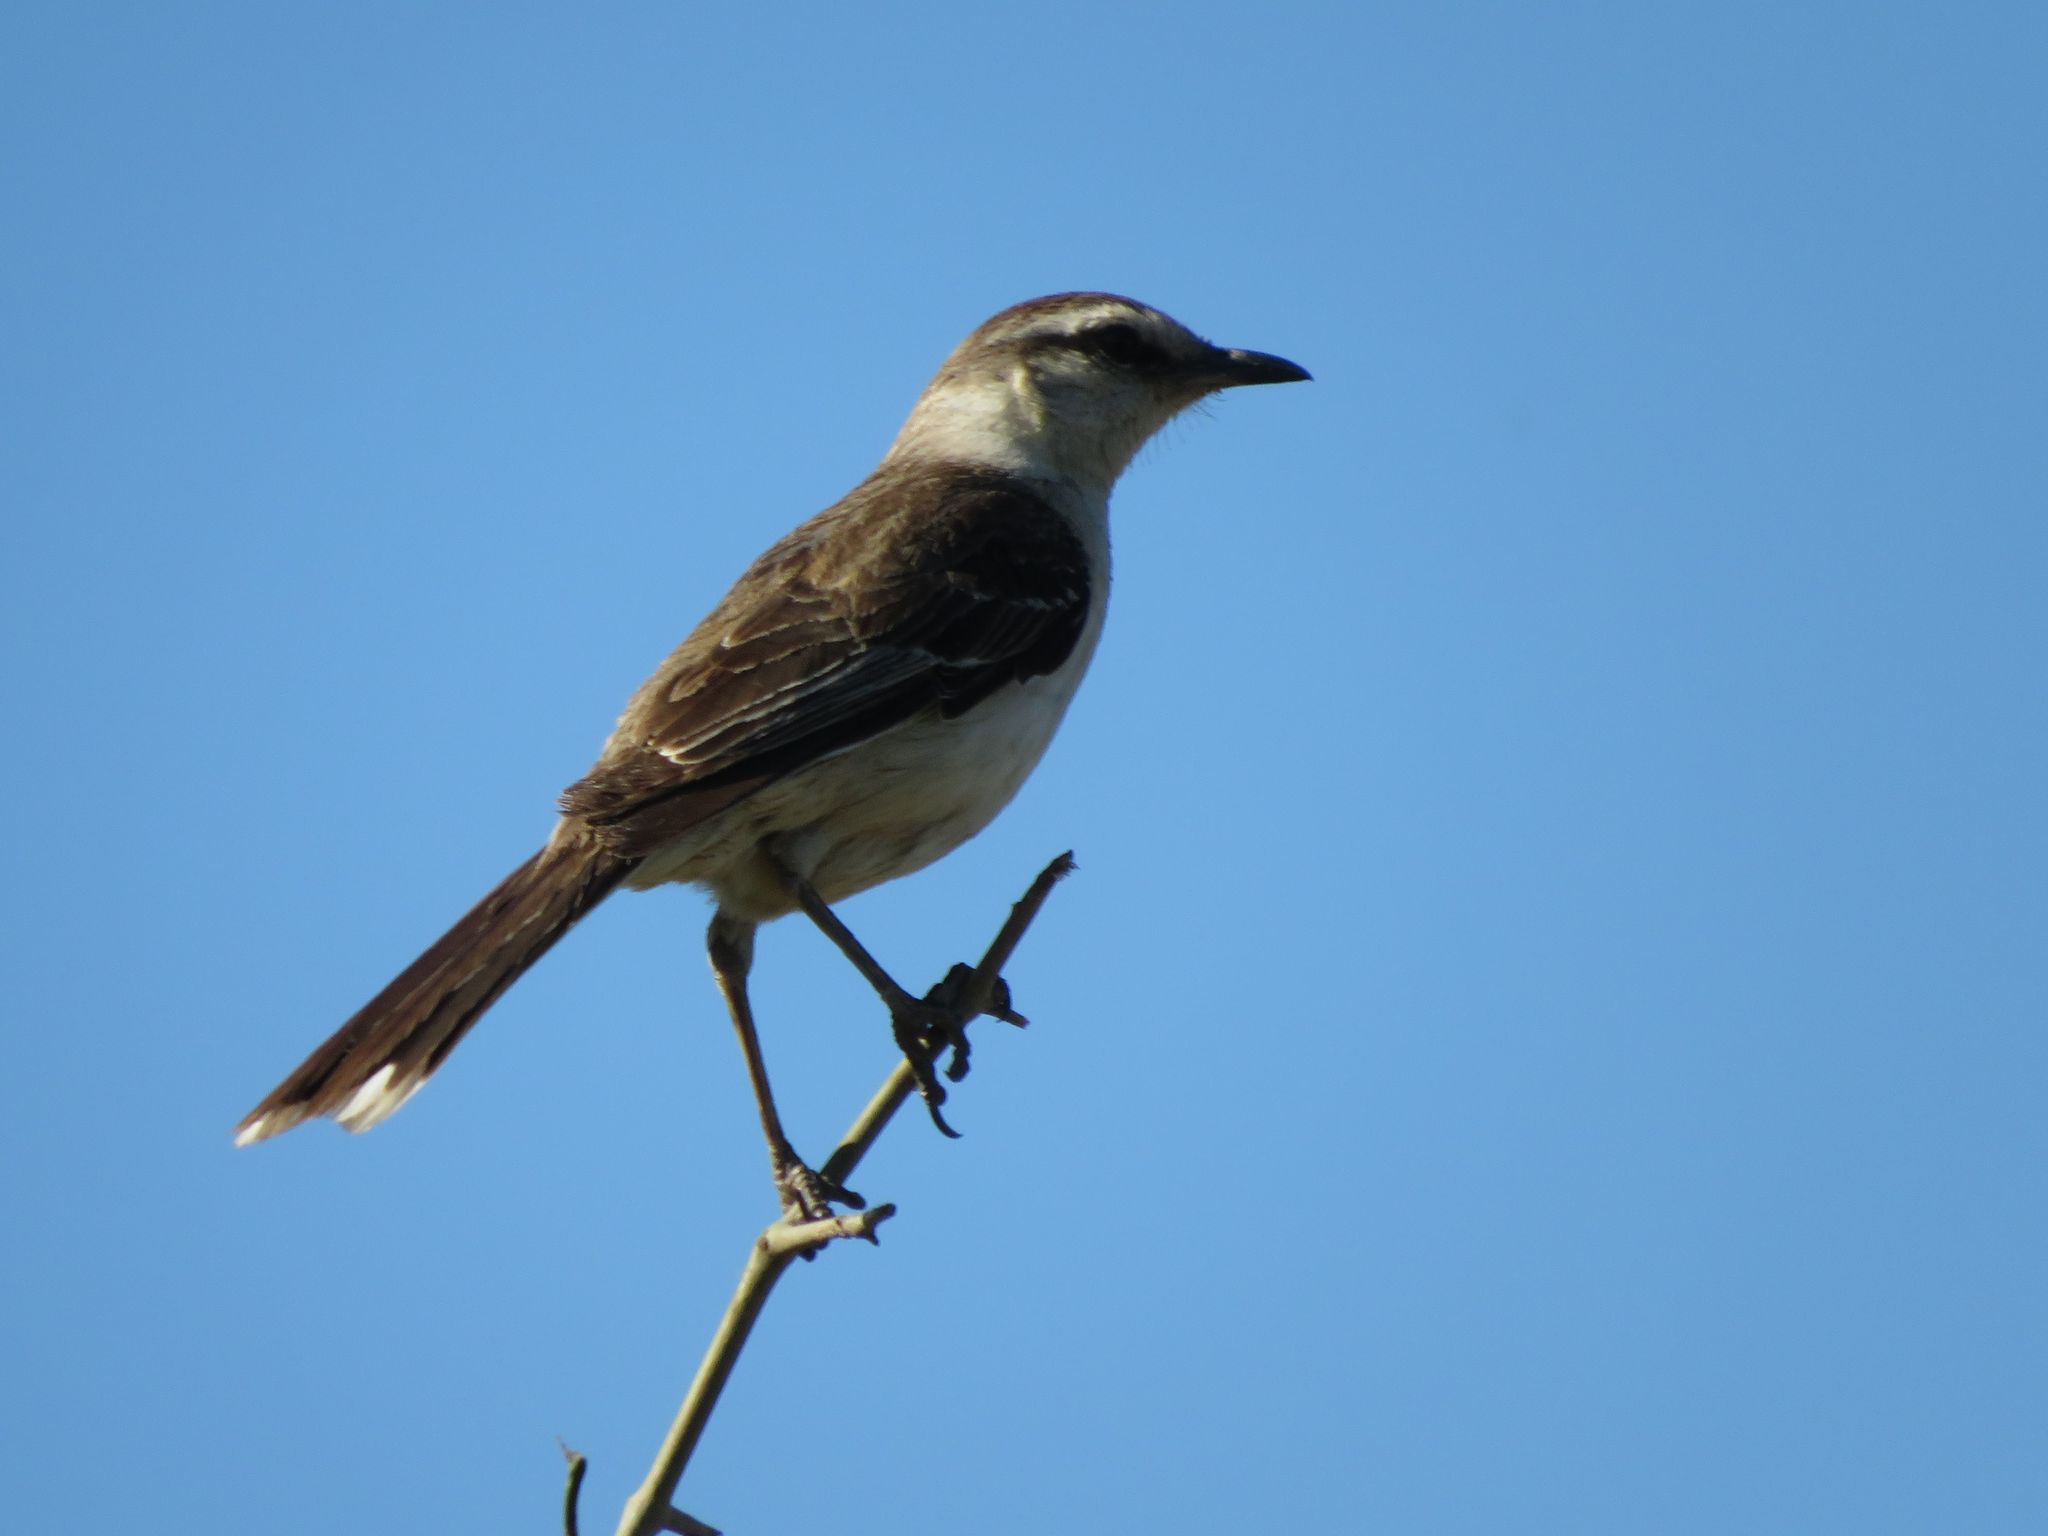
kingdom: Animalia
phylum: Chordata
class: Aves
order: Passeriformes
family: Mimidae
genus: Mimus
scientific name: Mimus saturninus
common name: Chalk-browed mockingbird
